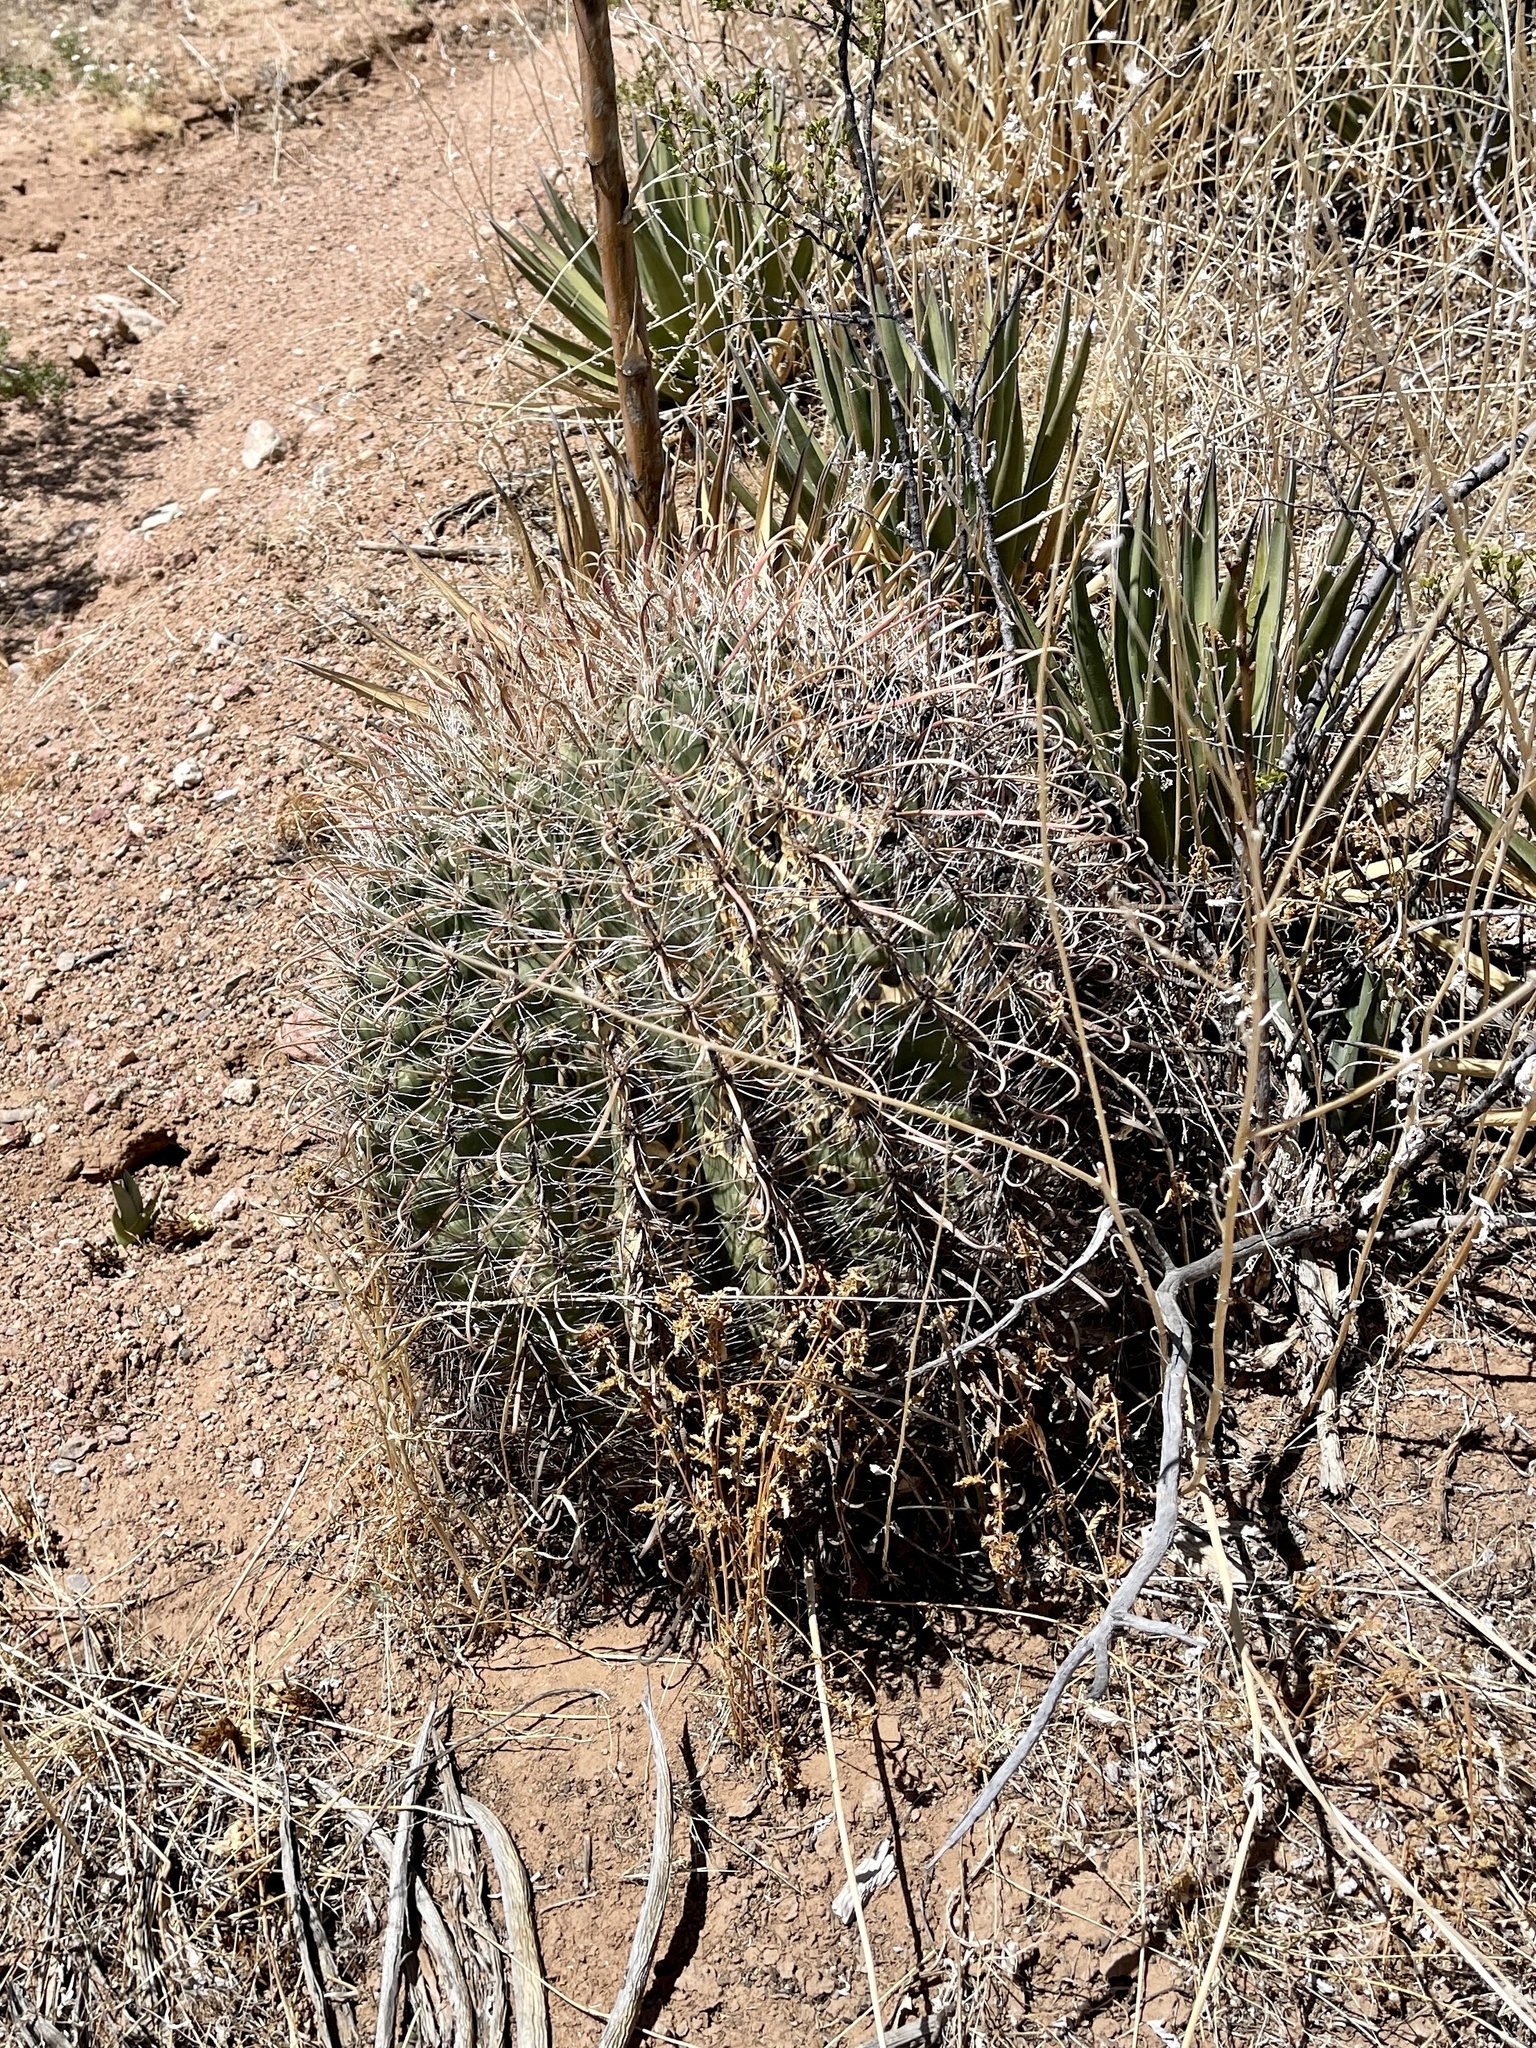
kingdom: Plantae
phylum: Tracheophyta
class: Magnoliopsida
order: Caryophyllales
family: Cactaceae
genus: Ferocactus
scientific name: Ferocactus wislizeni
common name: Candy barrel cactus
